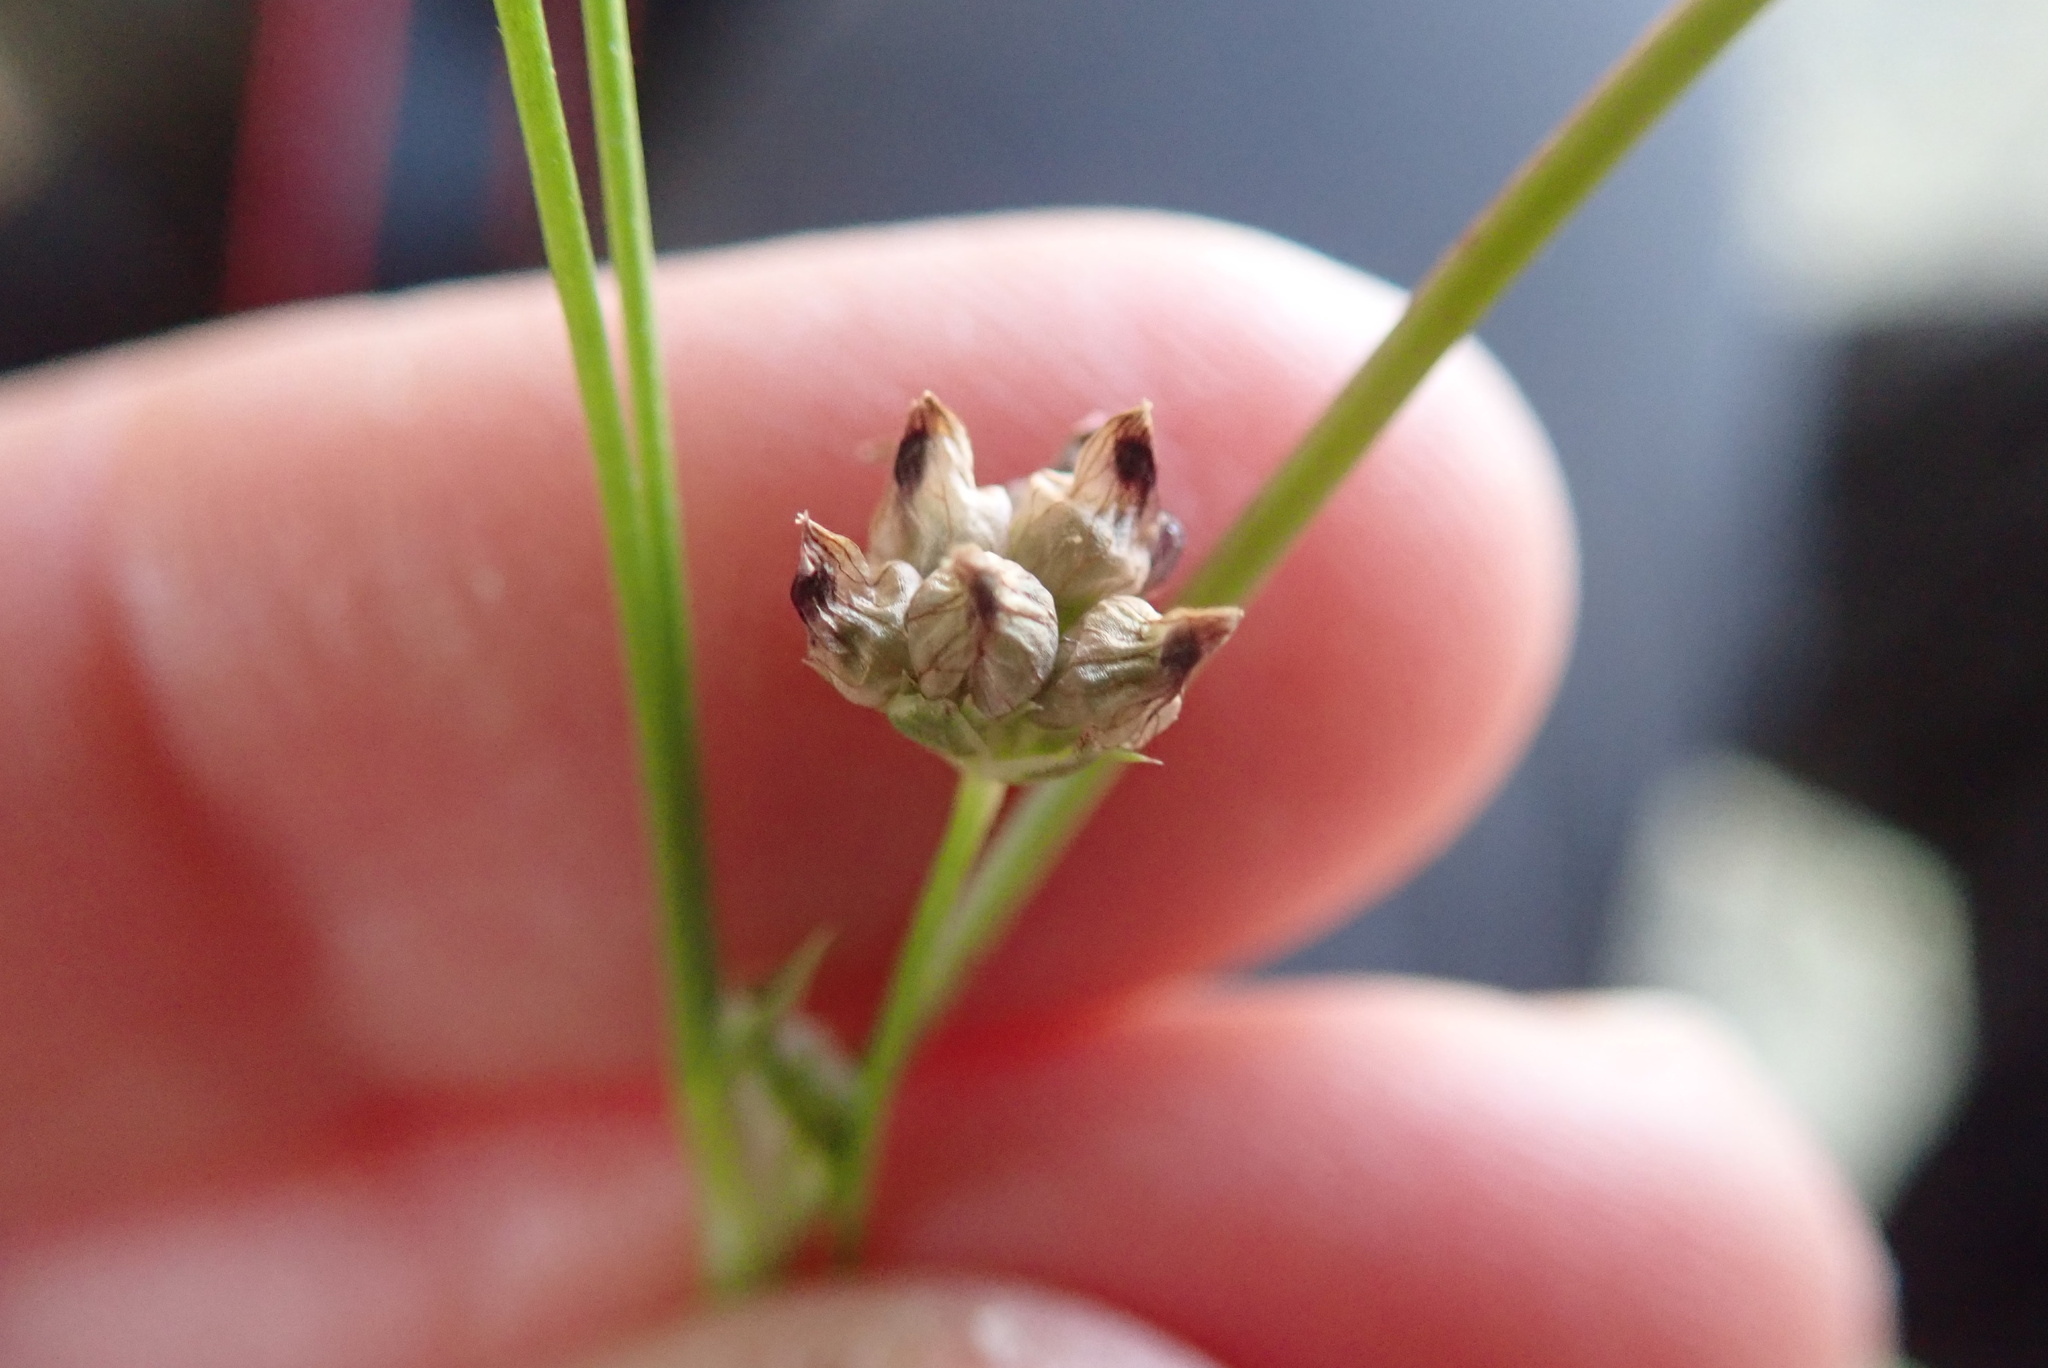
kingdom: Plantae
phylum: Tracheophyta
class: Magnoliopsida
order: Fabales
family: Fabaceae
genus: Trifolium
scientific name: Trifolium depauperatum
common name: Poverty clover
